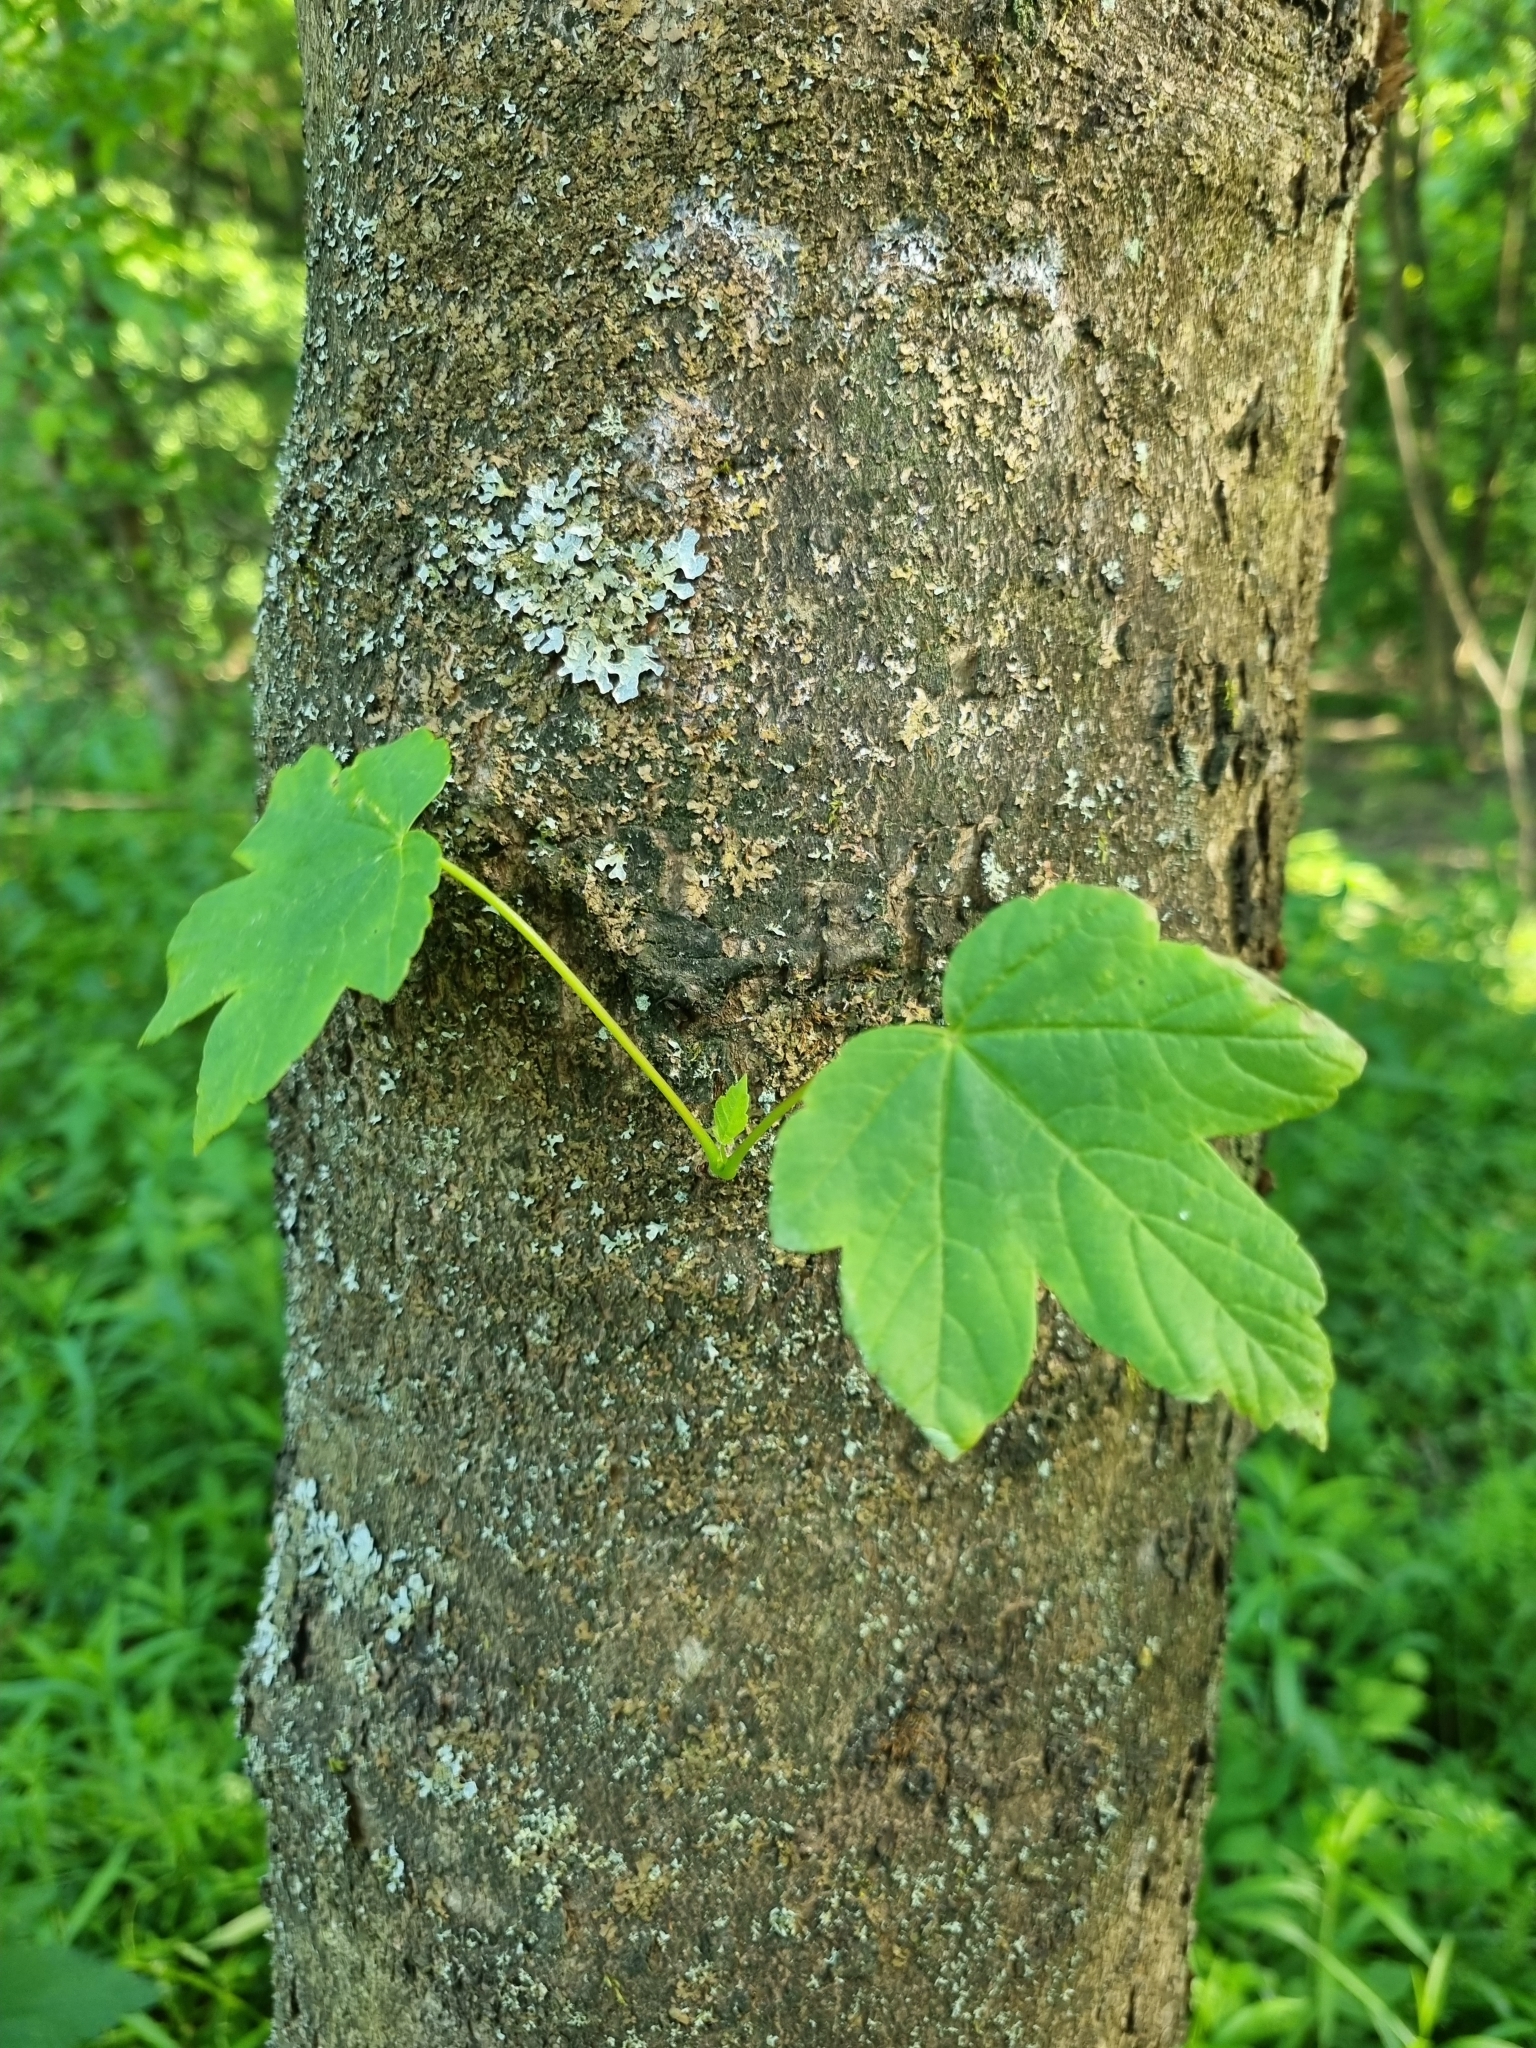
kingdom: Plantae
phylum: Tracheophyta
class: Magnoliopsida
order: Sapindales
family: Sapindaceae
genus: Acer
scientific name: Acer pseudoplatanus
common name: Sycamore
